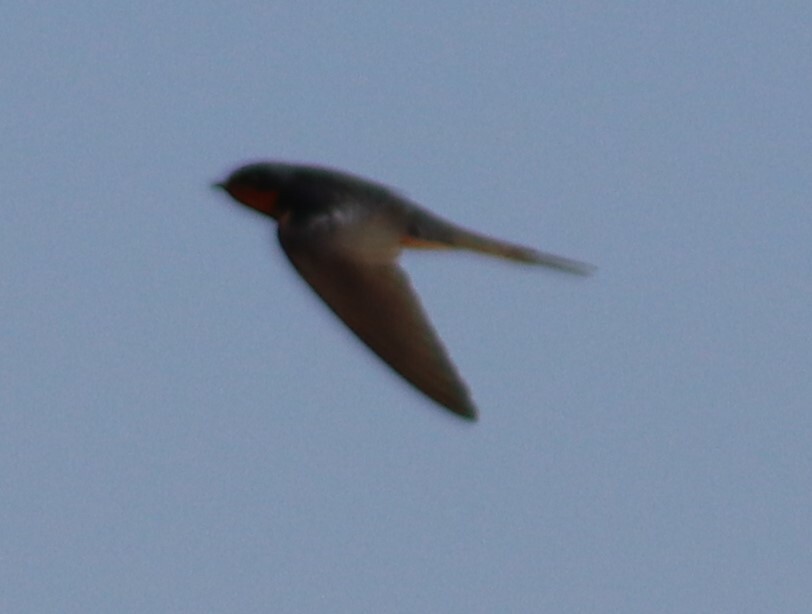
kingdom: Animalia
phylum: Chordata
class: Aves
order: Passeriformes
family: Hirundinidae
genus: Hirundo
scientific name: Hirundo rustica
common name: Barn swallow
